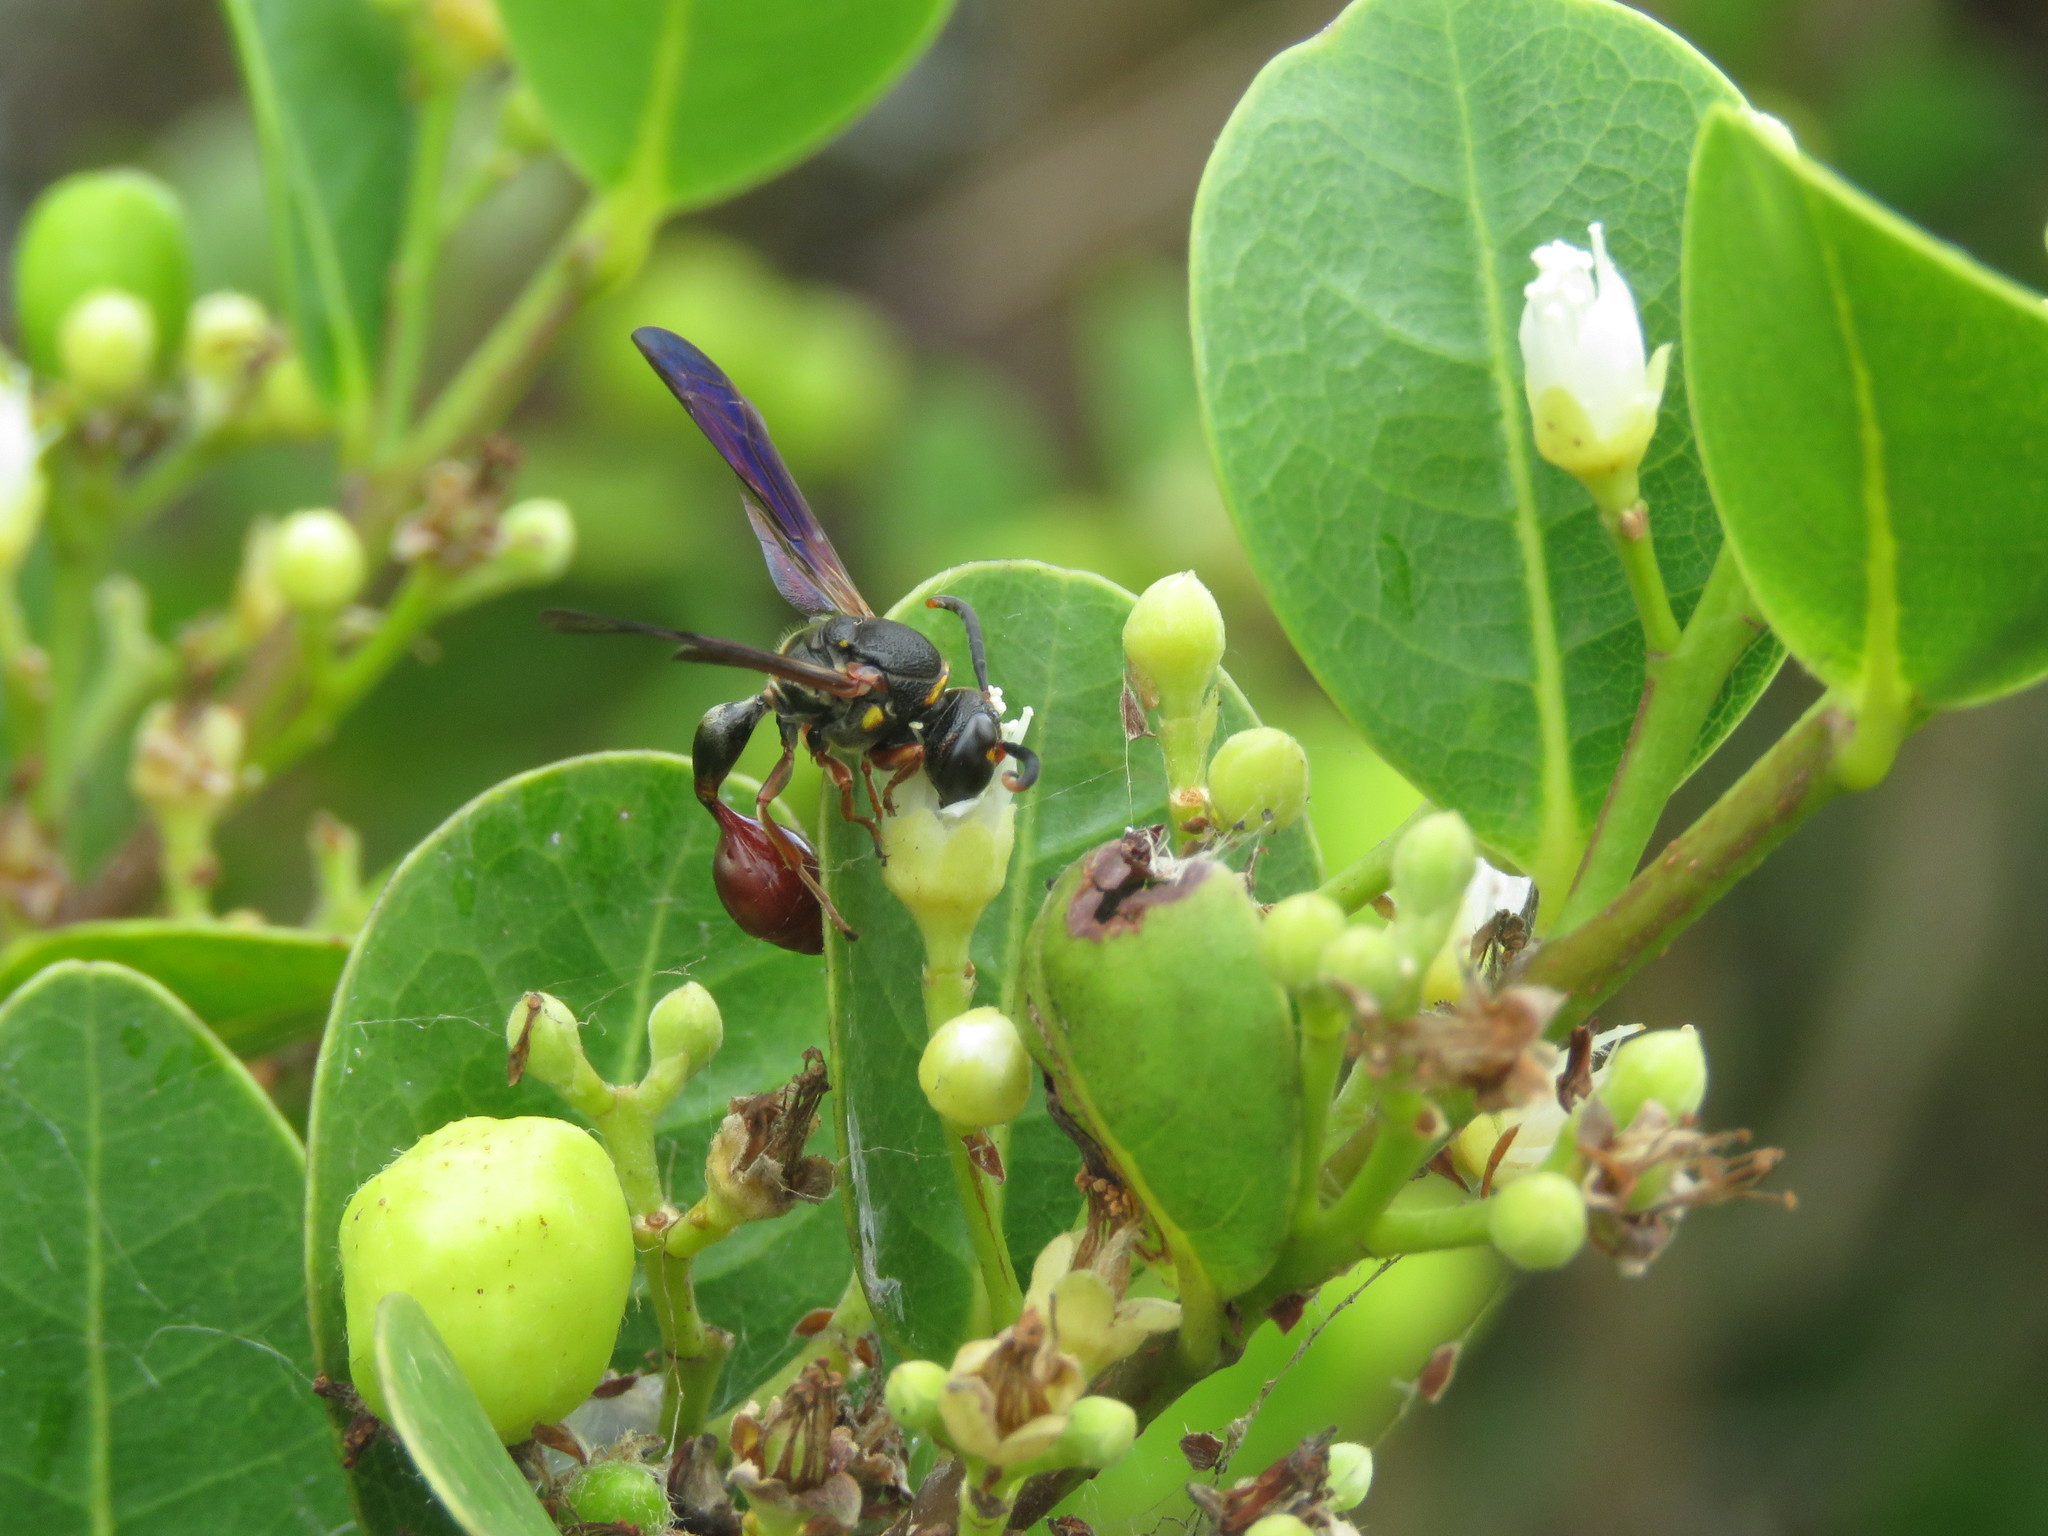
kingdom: Animalia
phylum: Arthropoda
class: Insecta
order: Hymenoptera
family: Eumenidae
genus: Zethus
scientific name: Zethus slossonae
